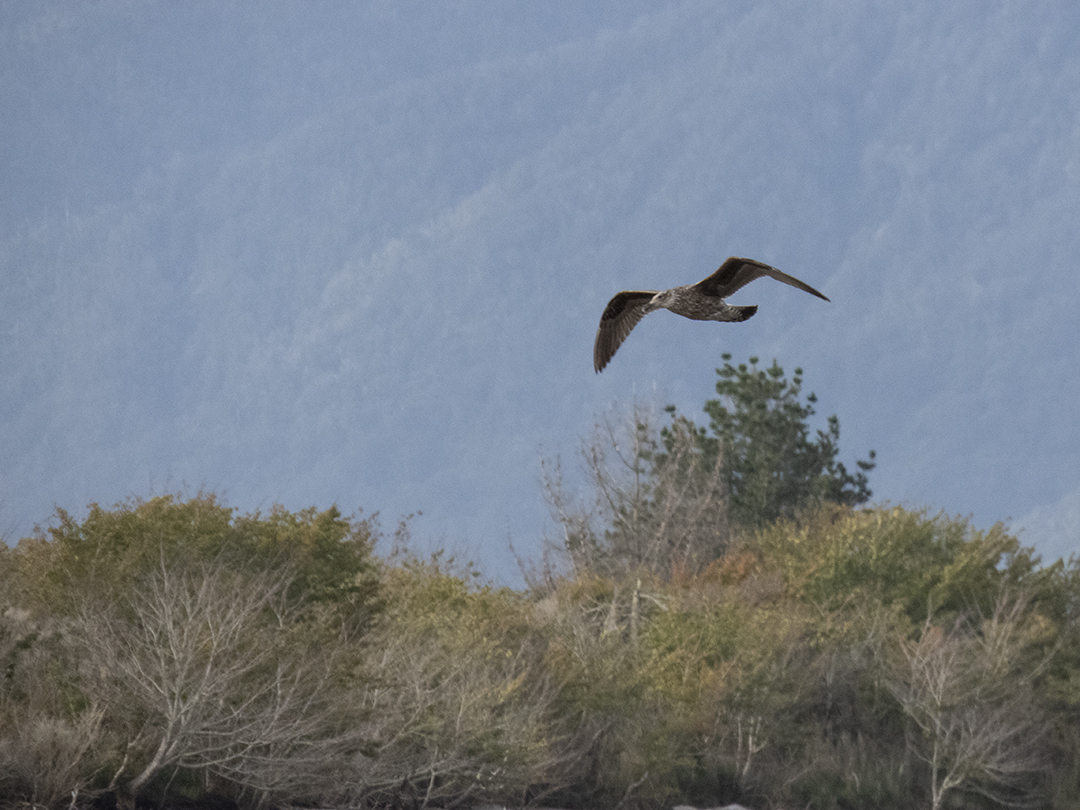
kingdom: Animalia
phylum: Chordata
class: Aves
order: Charadriiformes
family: Laridae
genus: Larus
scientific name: Larus dominicanus
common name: Kelp gull
